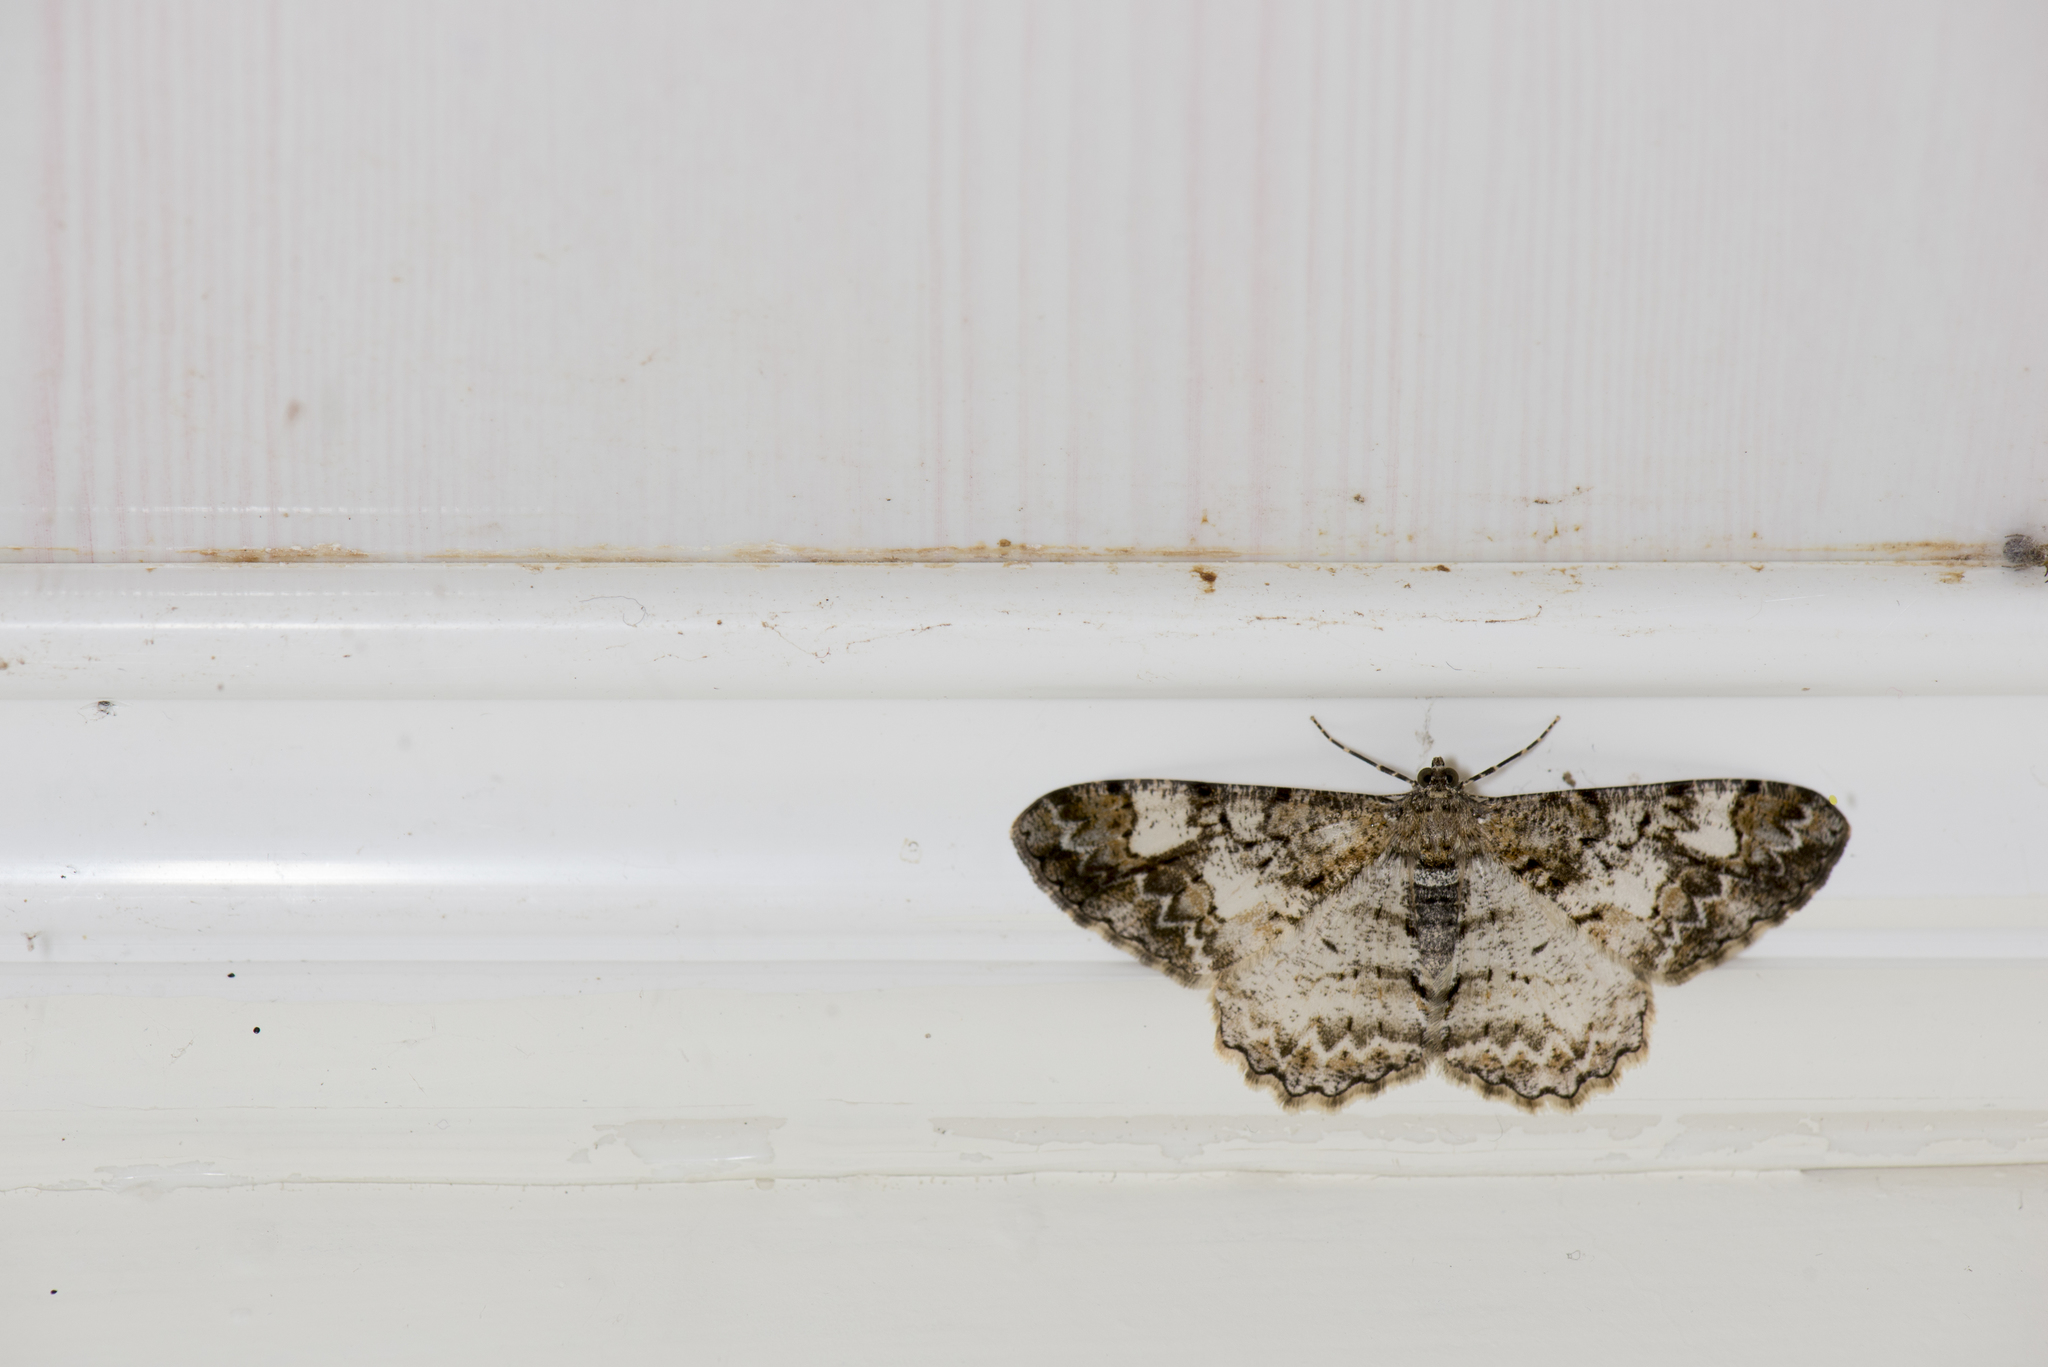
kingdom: Animalia
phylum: Arthropoda
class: Insecta
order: Lepidoptera
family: Geometridae
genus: Alcis
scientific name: Alcis admissaria
